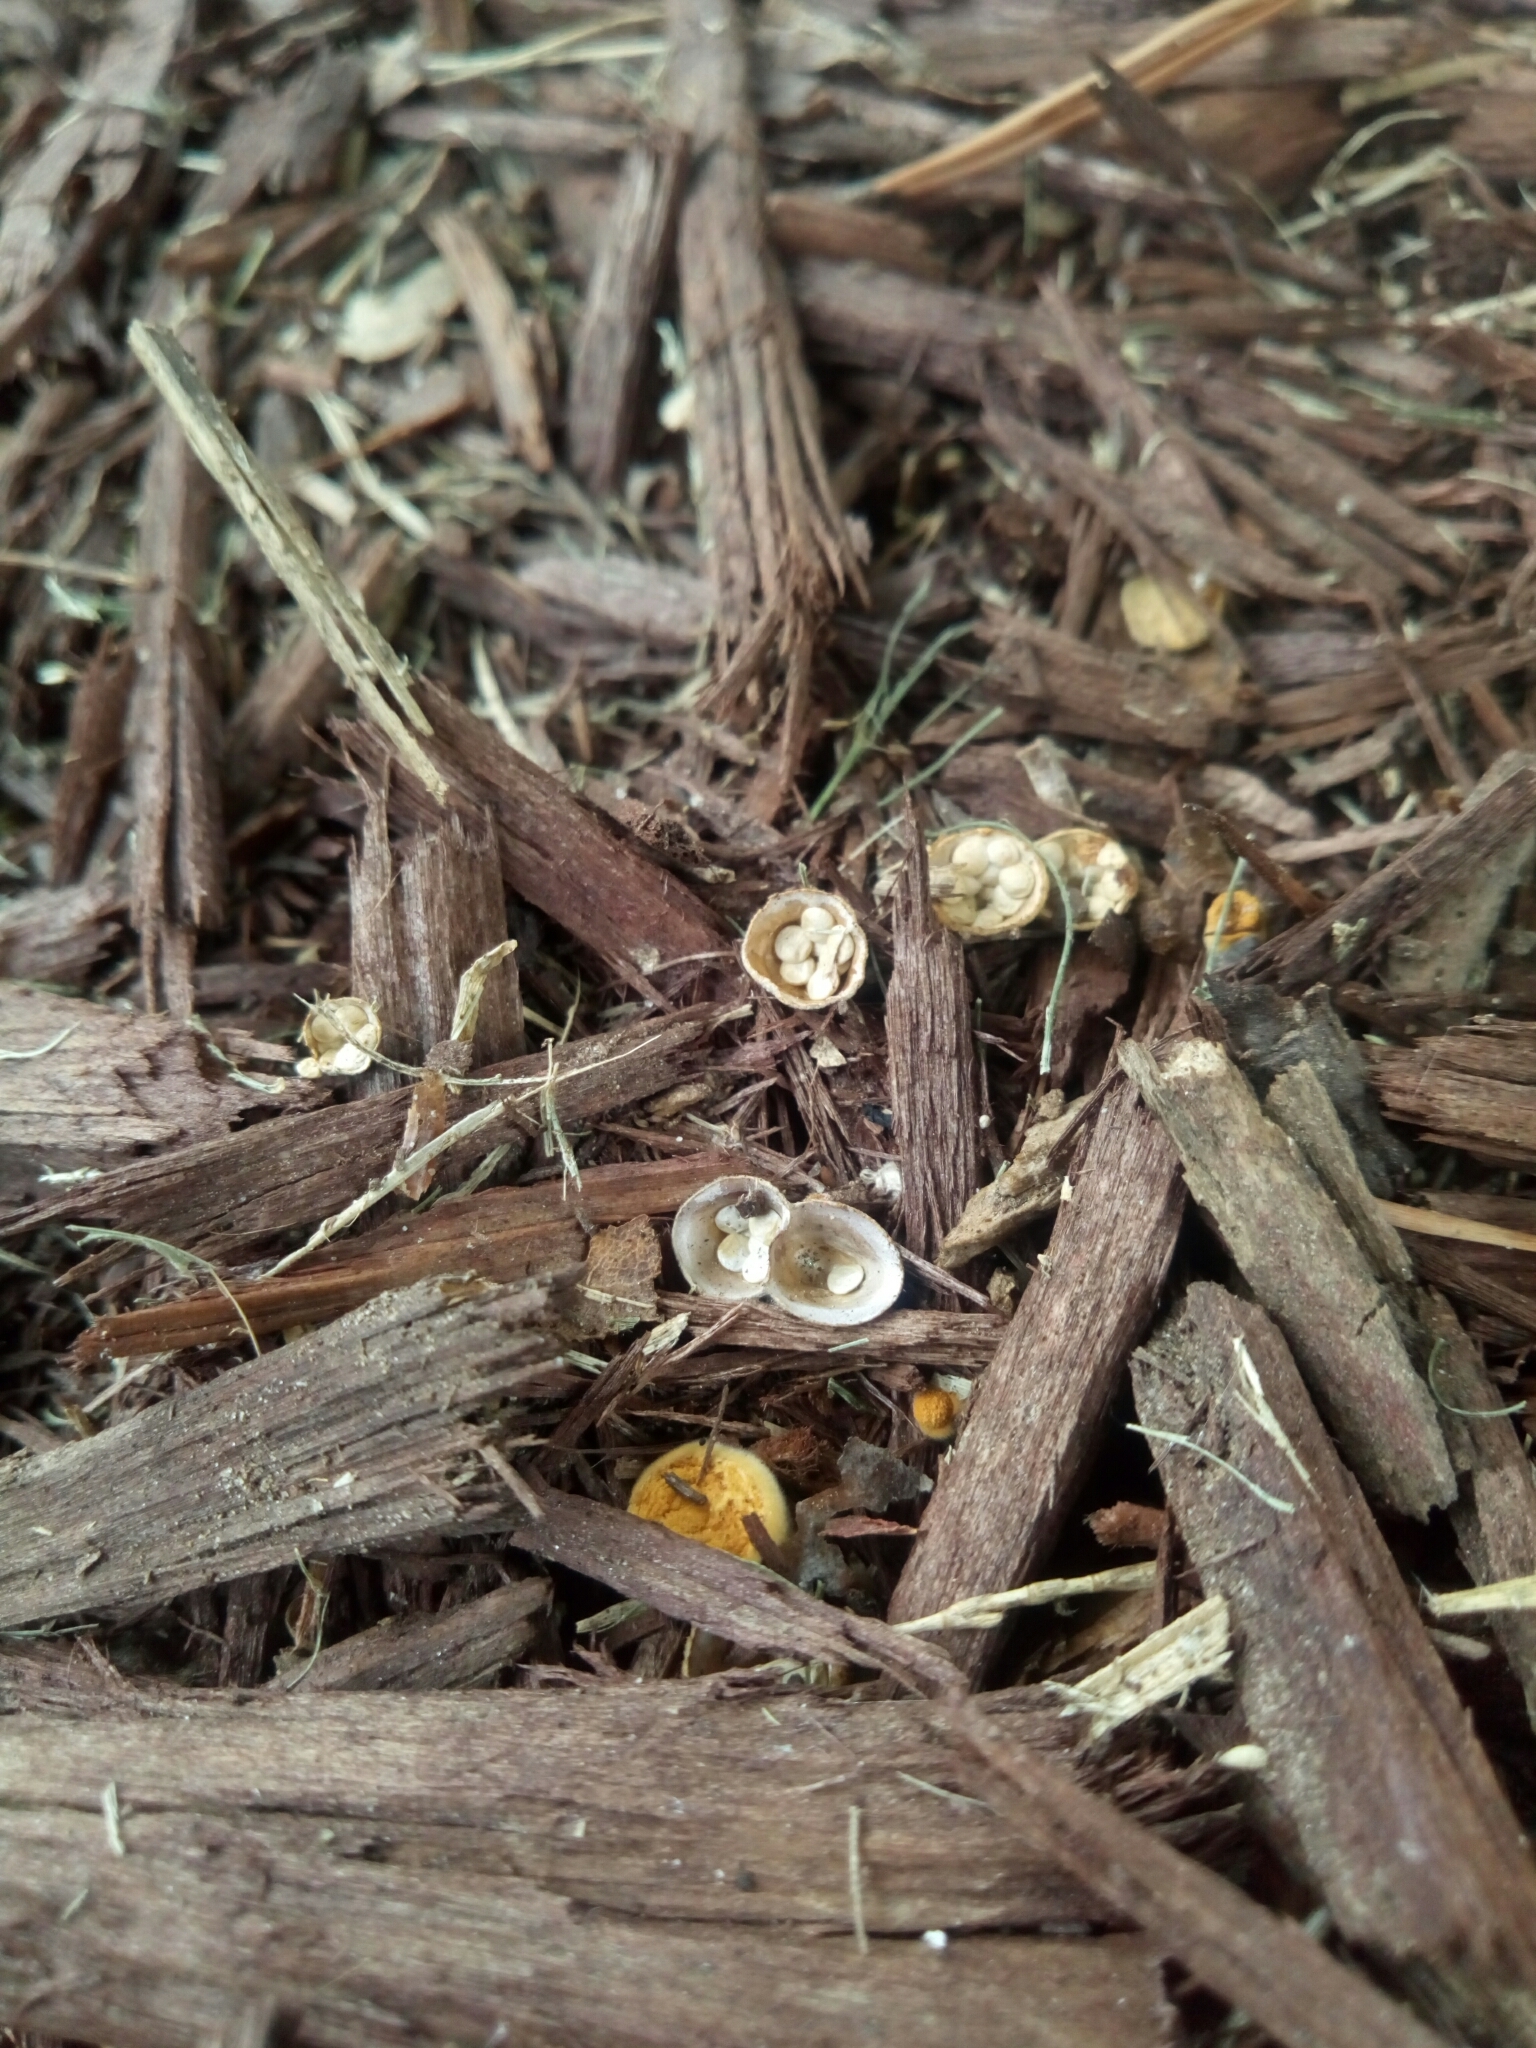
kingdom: Fungi
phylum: Basidiomycota
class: Agaricomycetes
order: Agaricales
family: Nidulariaceae
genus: Crucibulum
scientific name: Crucibulum laeve
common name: Common bird's nest
